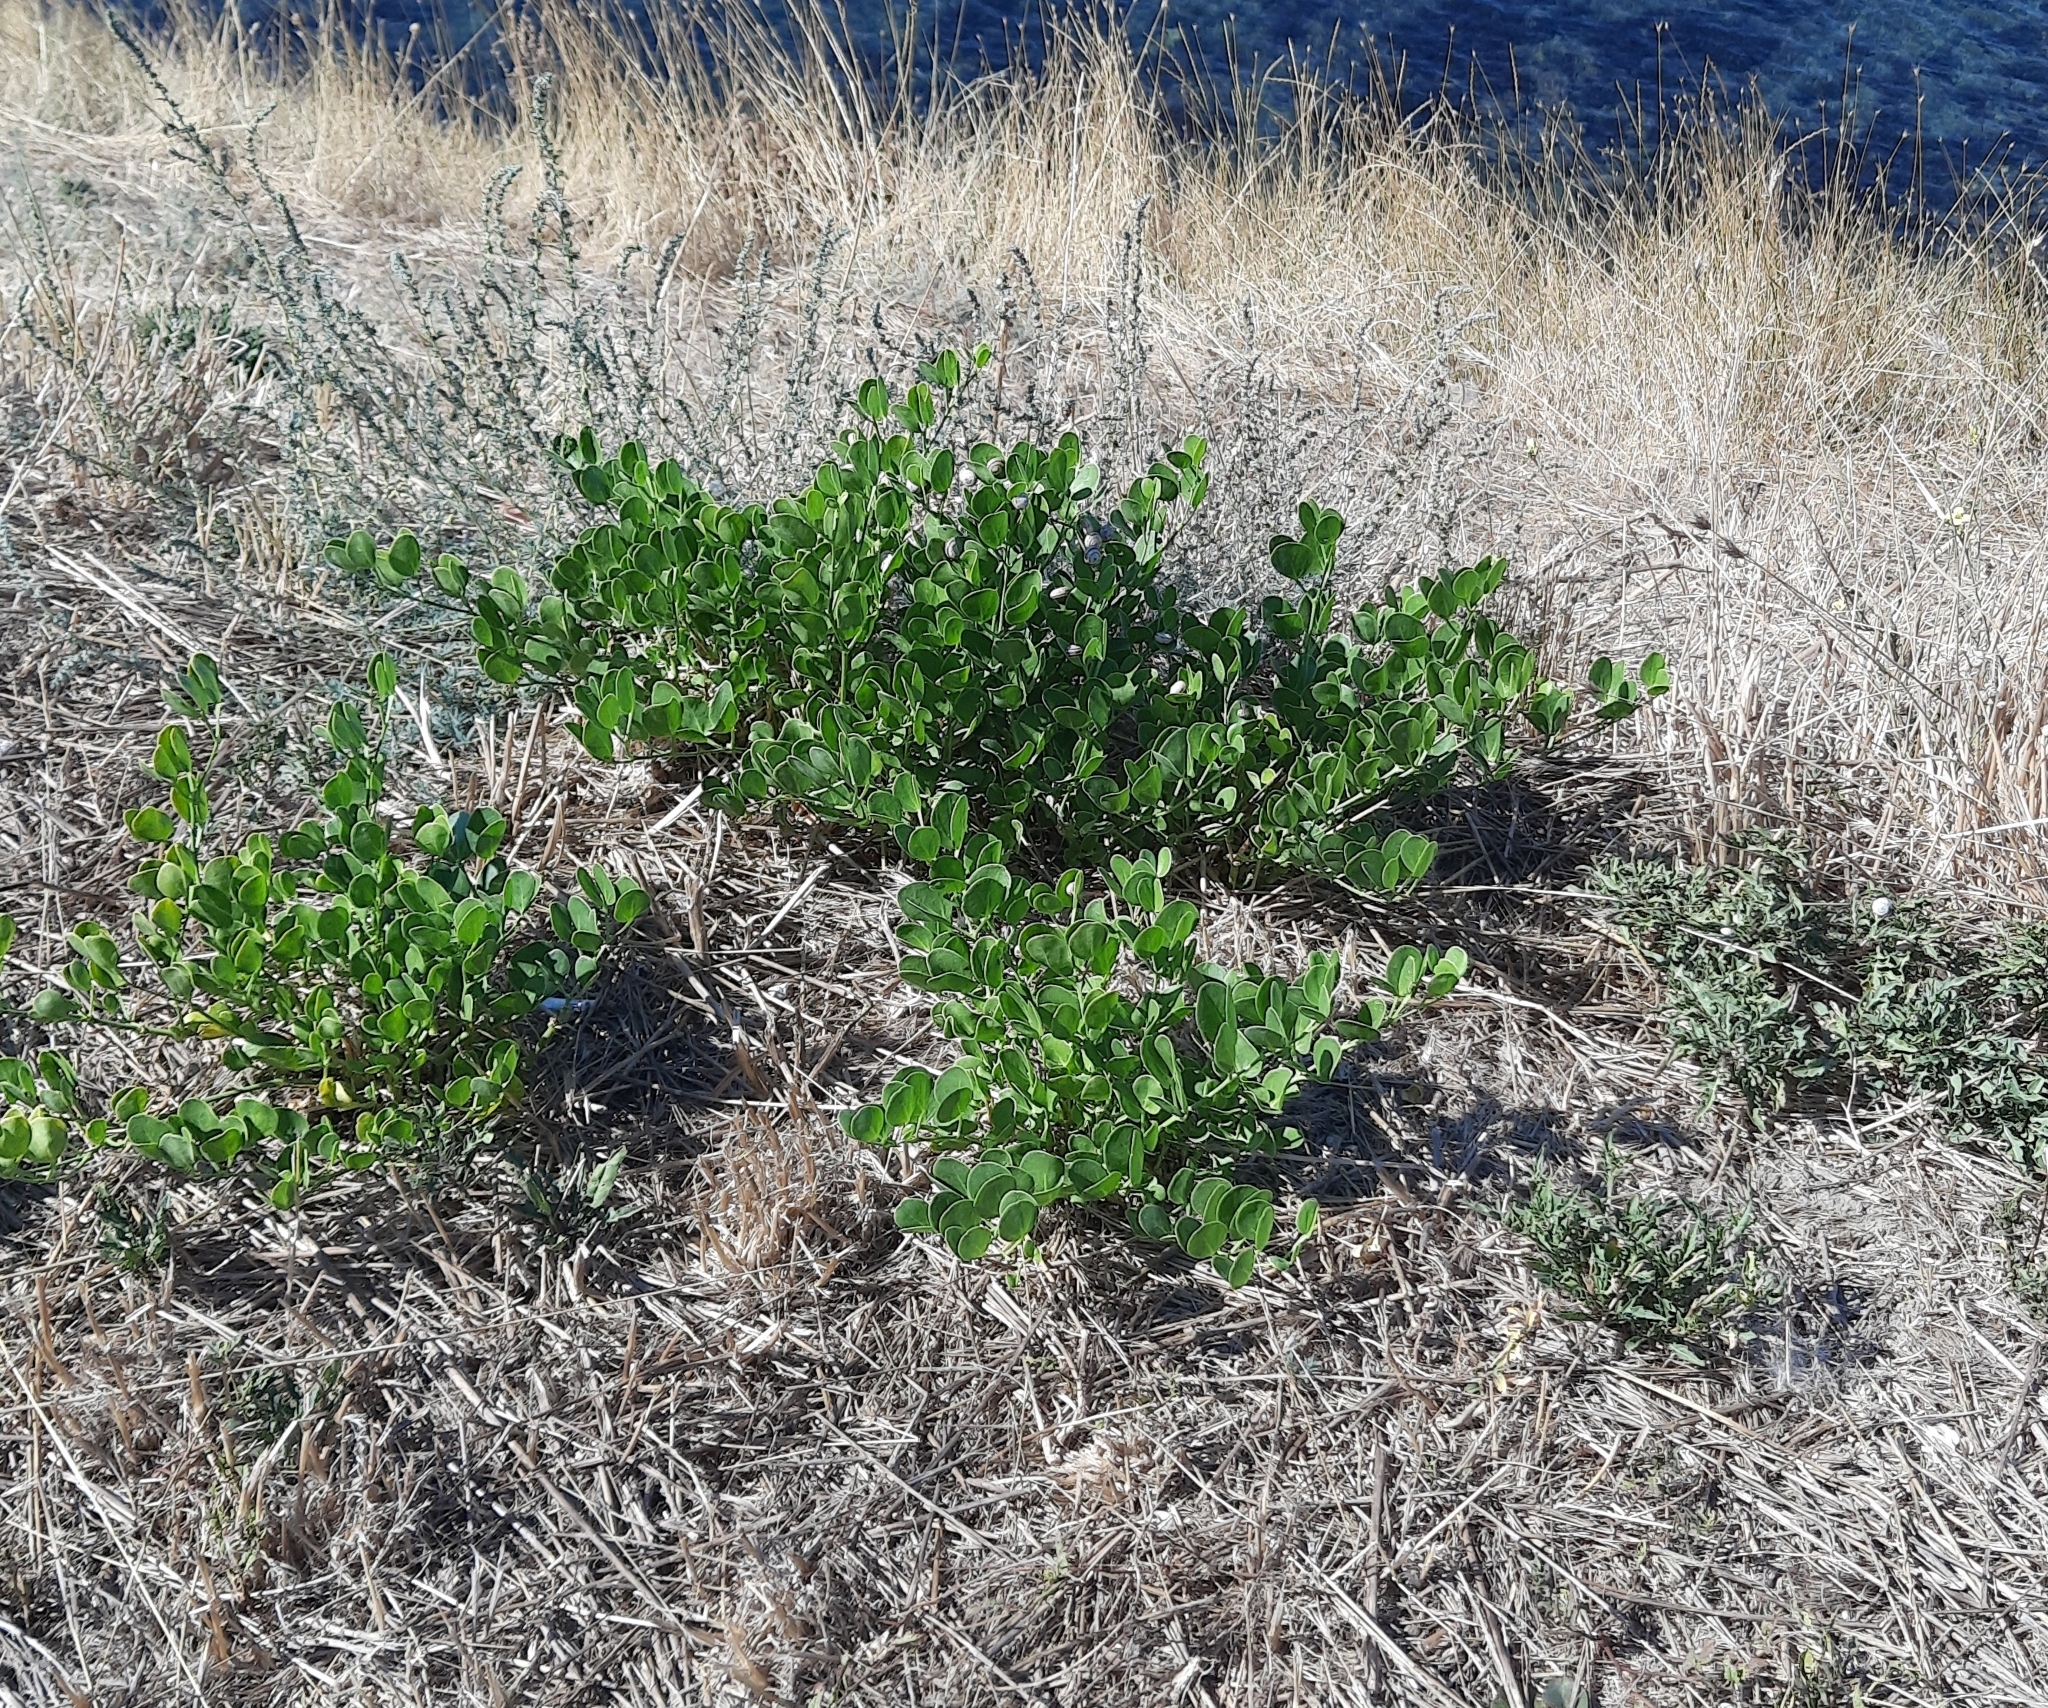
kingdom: Plantae
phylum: Tracheophyta
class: Magnoliopsida
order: Zygophyllales
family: Zygophyllaceae
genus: Zygophyllum
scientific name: Zygophyllum fabago
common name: Syrian beancaper
